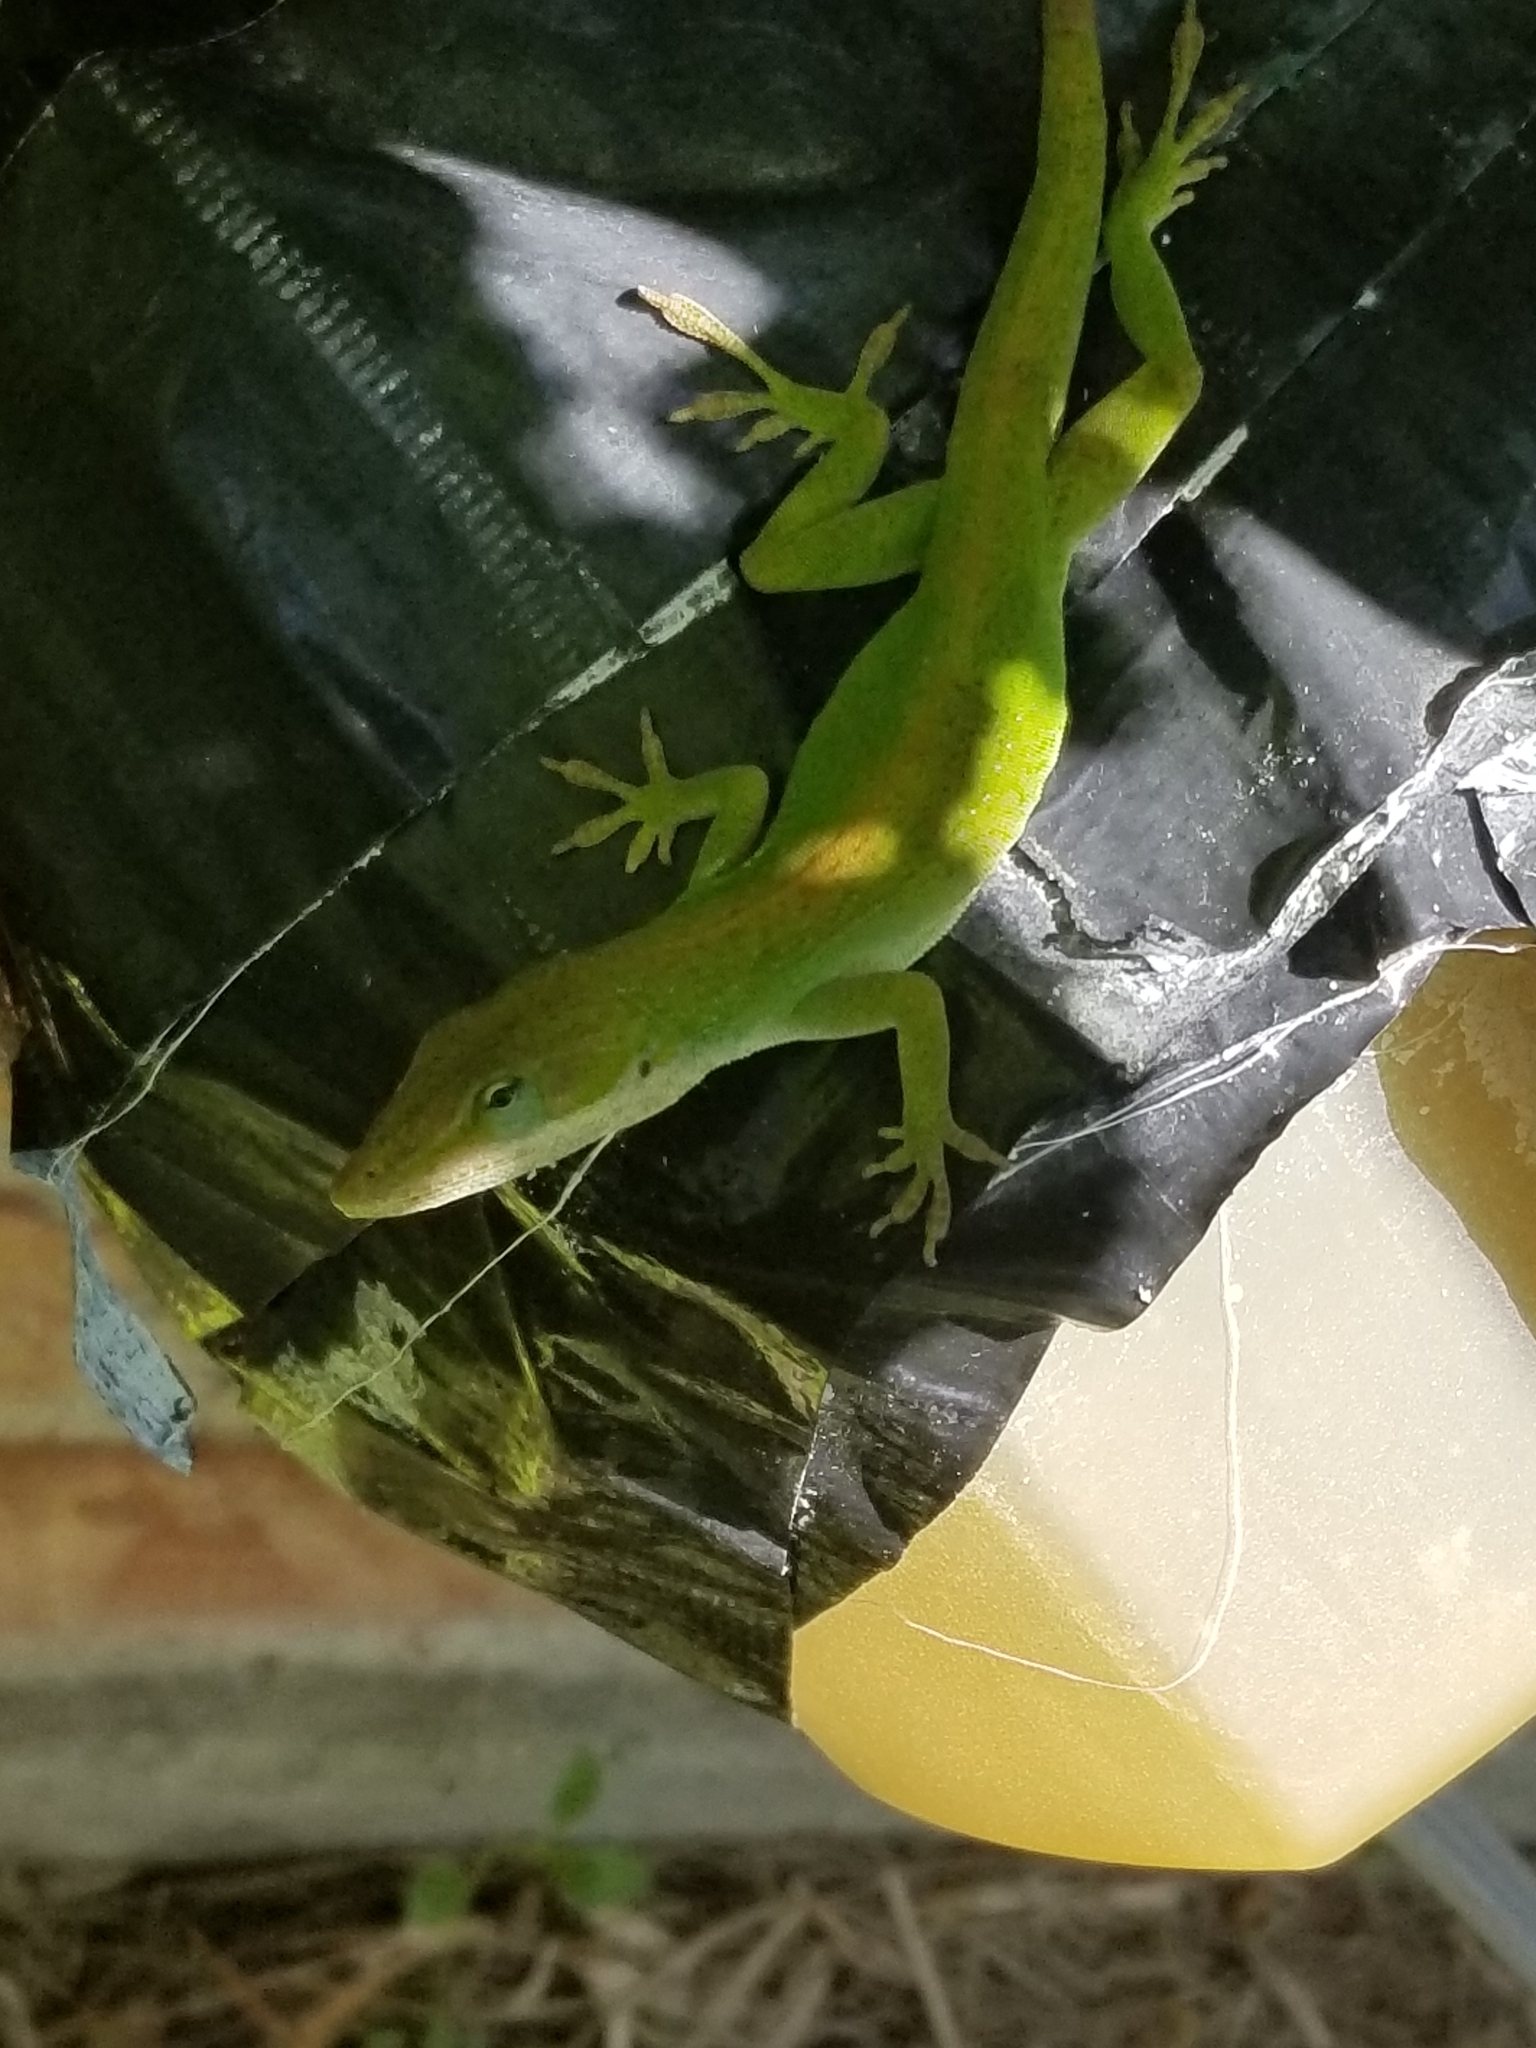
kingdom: Animalia
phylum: Chordata
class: Squamata
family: Dactyloidae
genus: Anolis
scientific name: Anolis carolinensis
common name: Green anole
